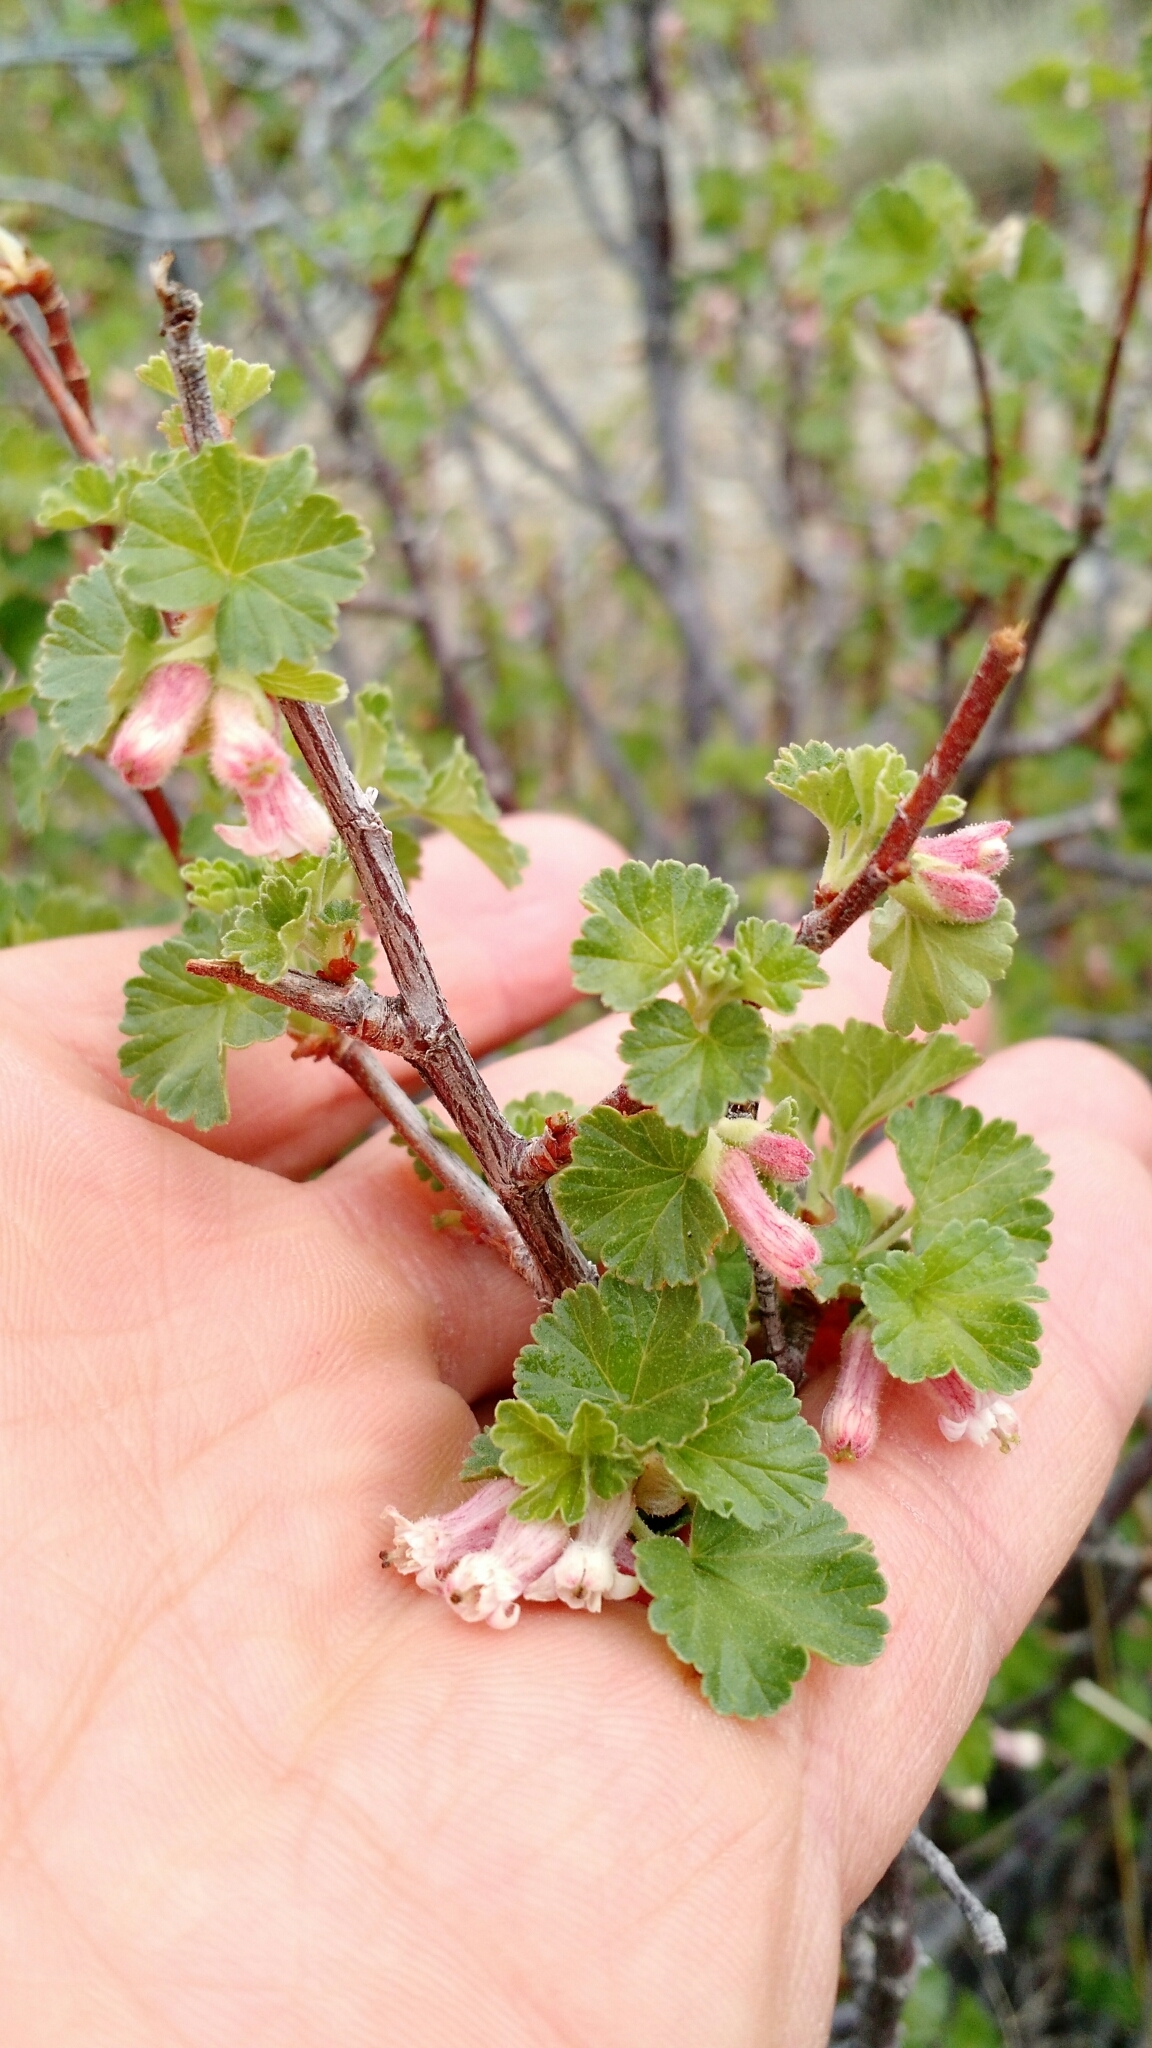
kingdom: Plantae
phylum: Tracheophyta
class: Magnoliopsida
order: Saxifragales
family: Grossulariaceae
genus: Ribes
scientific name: Ribes cereum
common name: Wax currant
